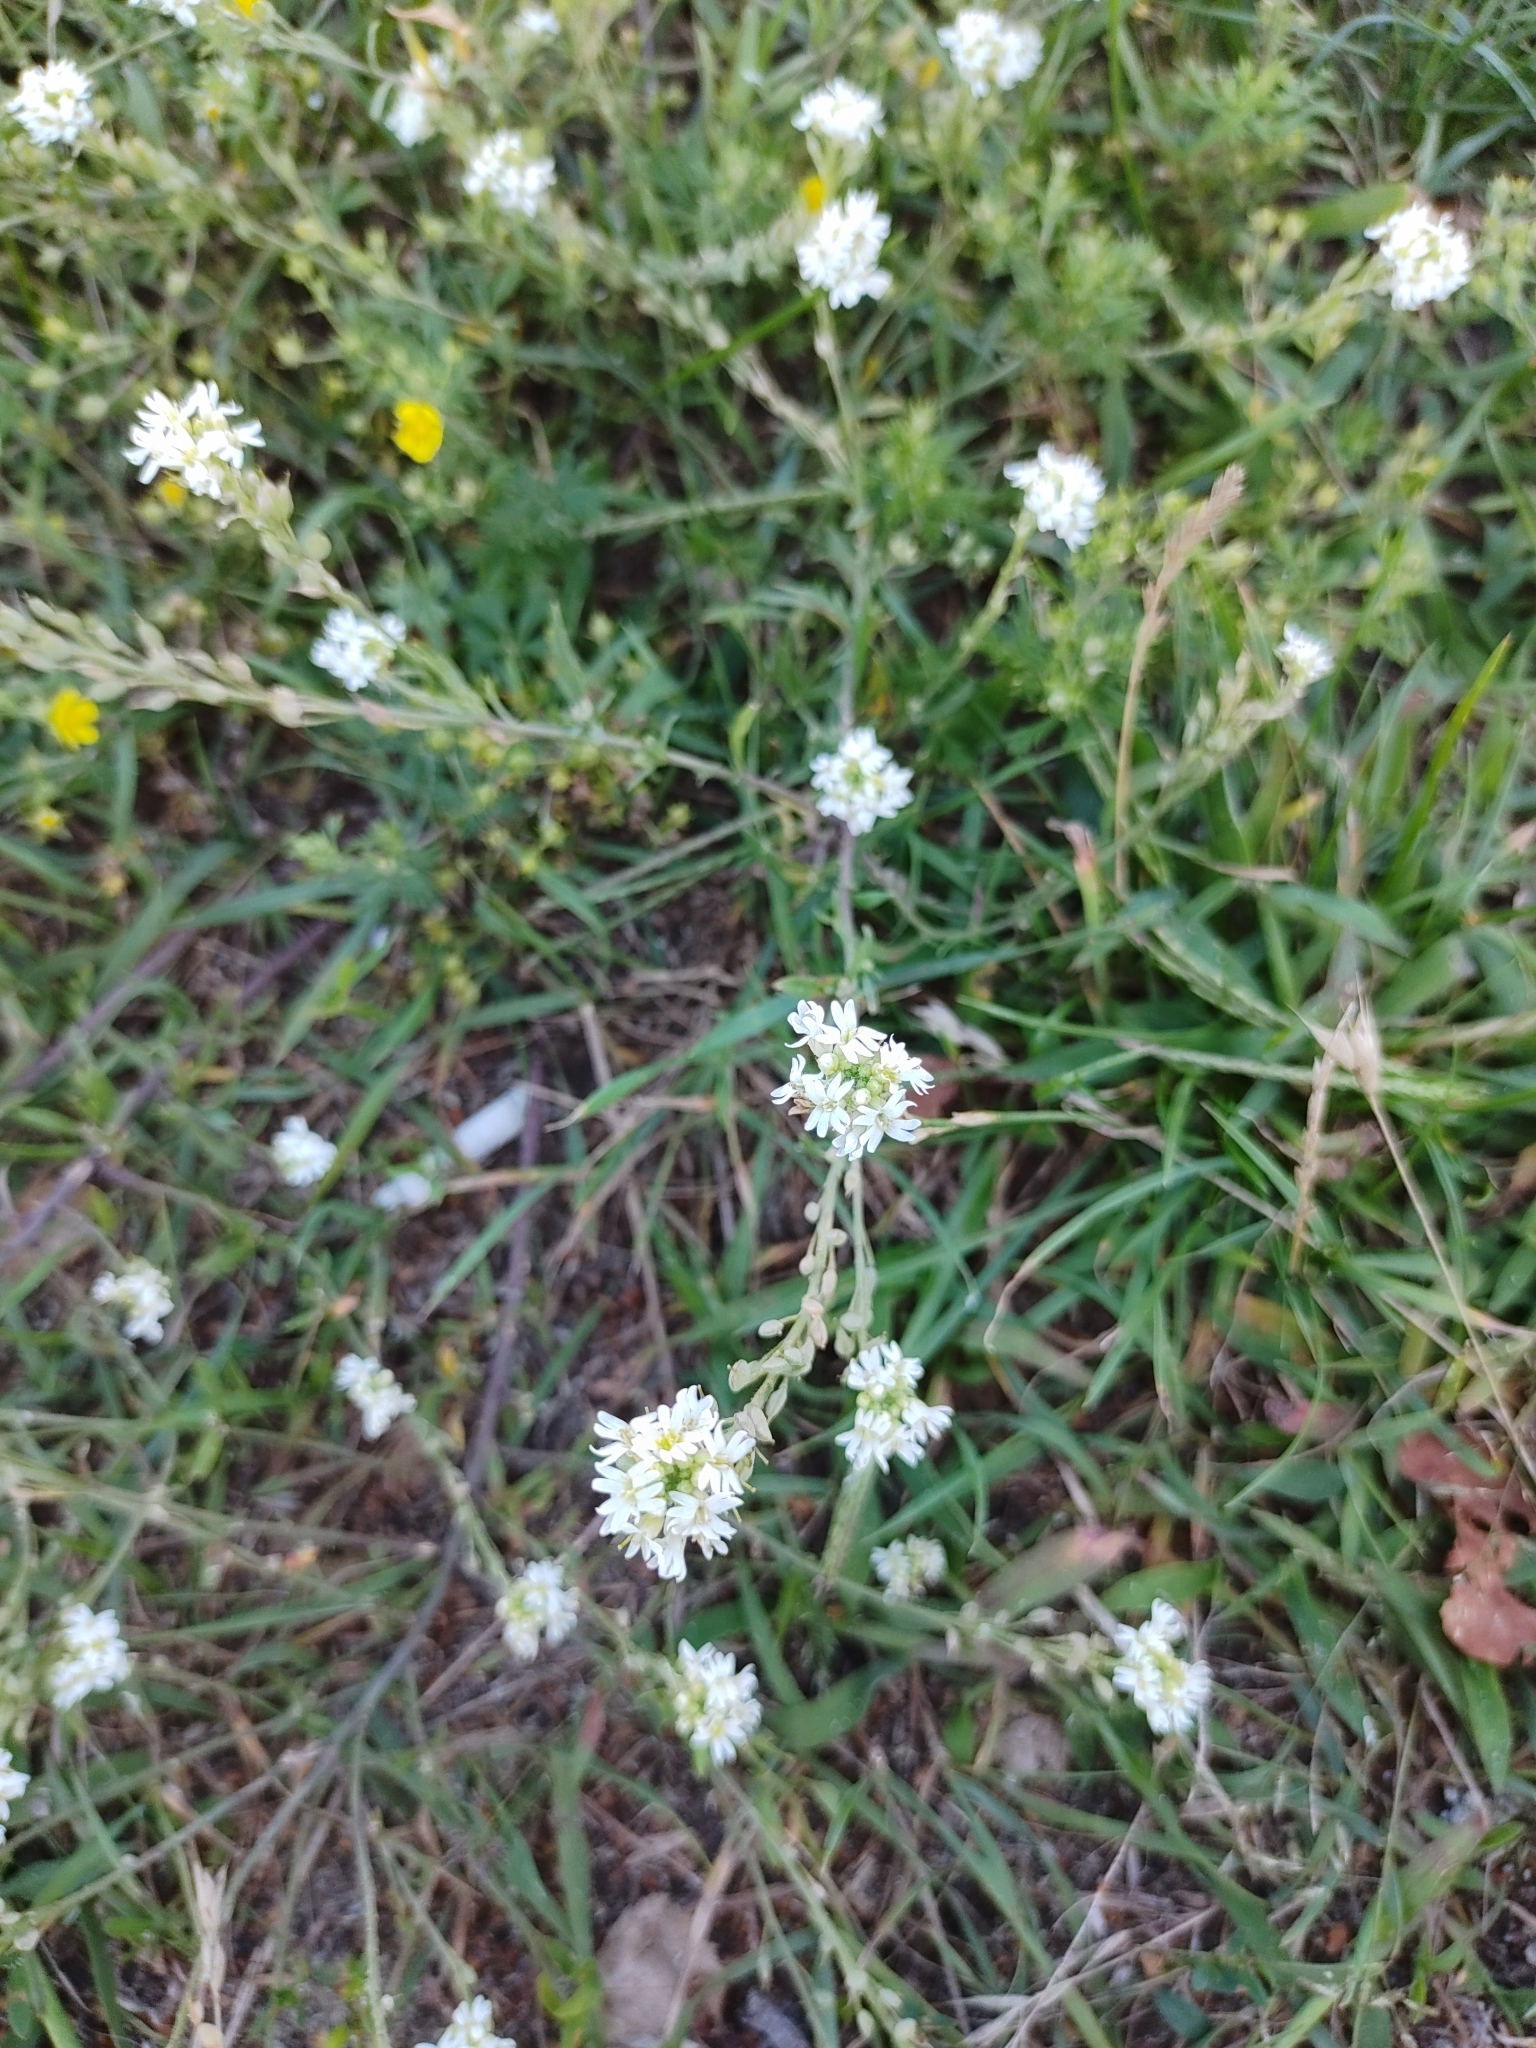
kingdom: Plantae
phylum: Tracheophyta
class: Magnoliopsida
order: Brassicales
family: Brassicaceae
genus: Berteroa
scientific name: Berteroa incana
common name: Hoary alison
